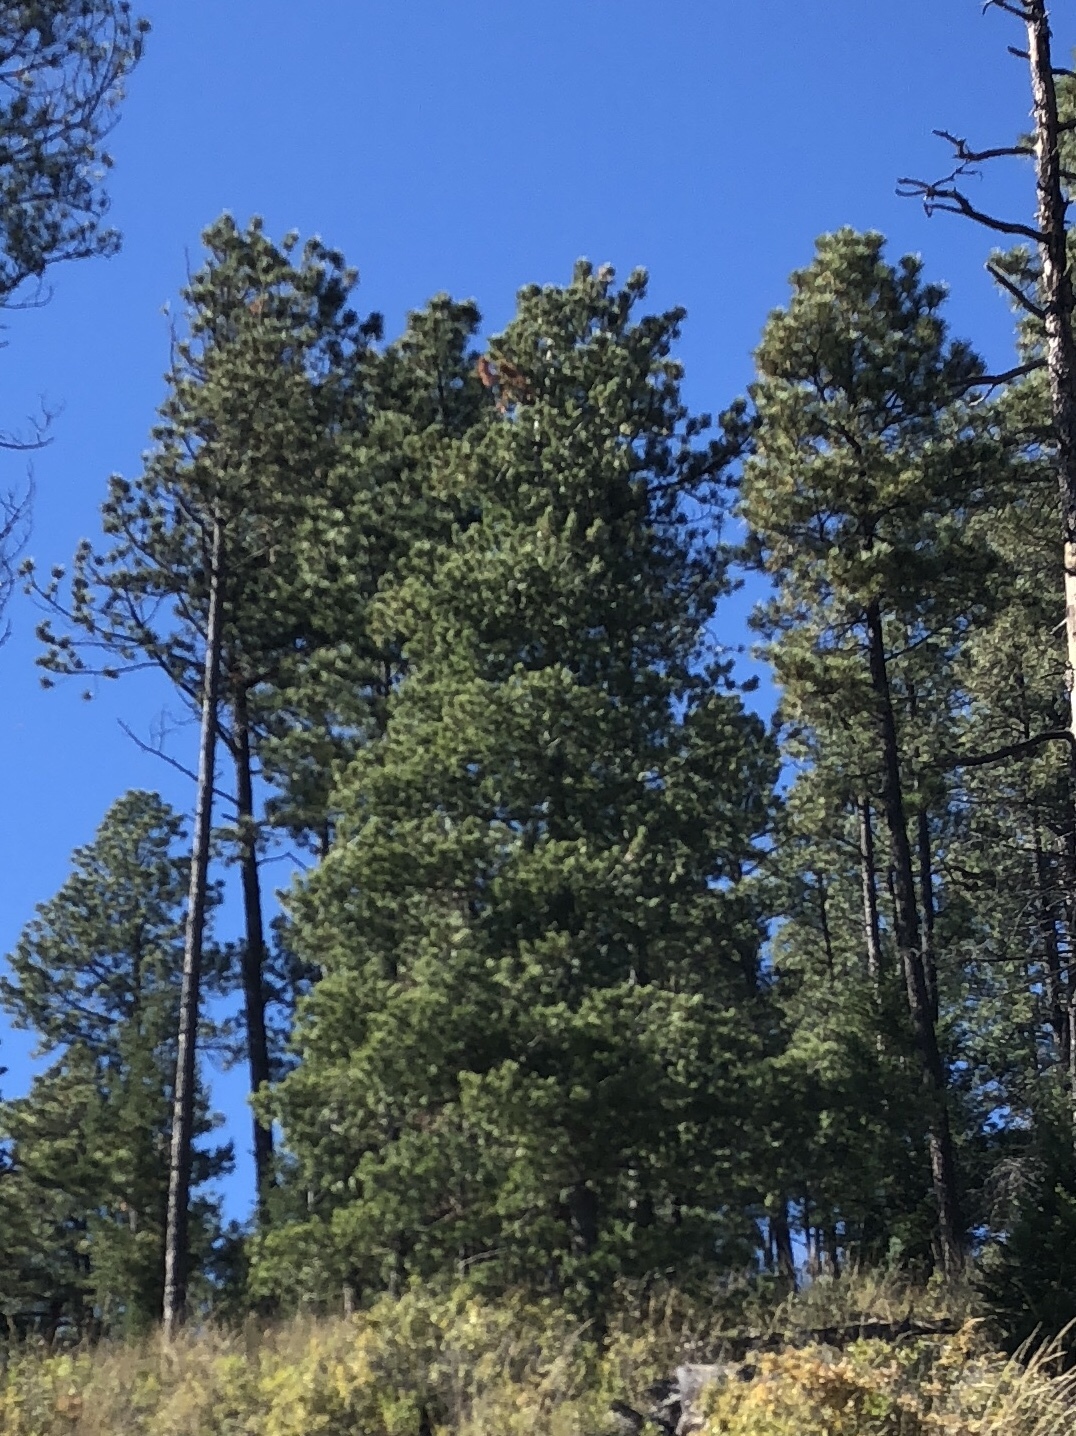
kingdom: Plantae
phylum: Tracheophyta
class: Pinopsida
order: Pinales
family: Pinaceae
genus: Pinus
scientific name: Pinus ponderosa
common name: Western yellow-pine
